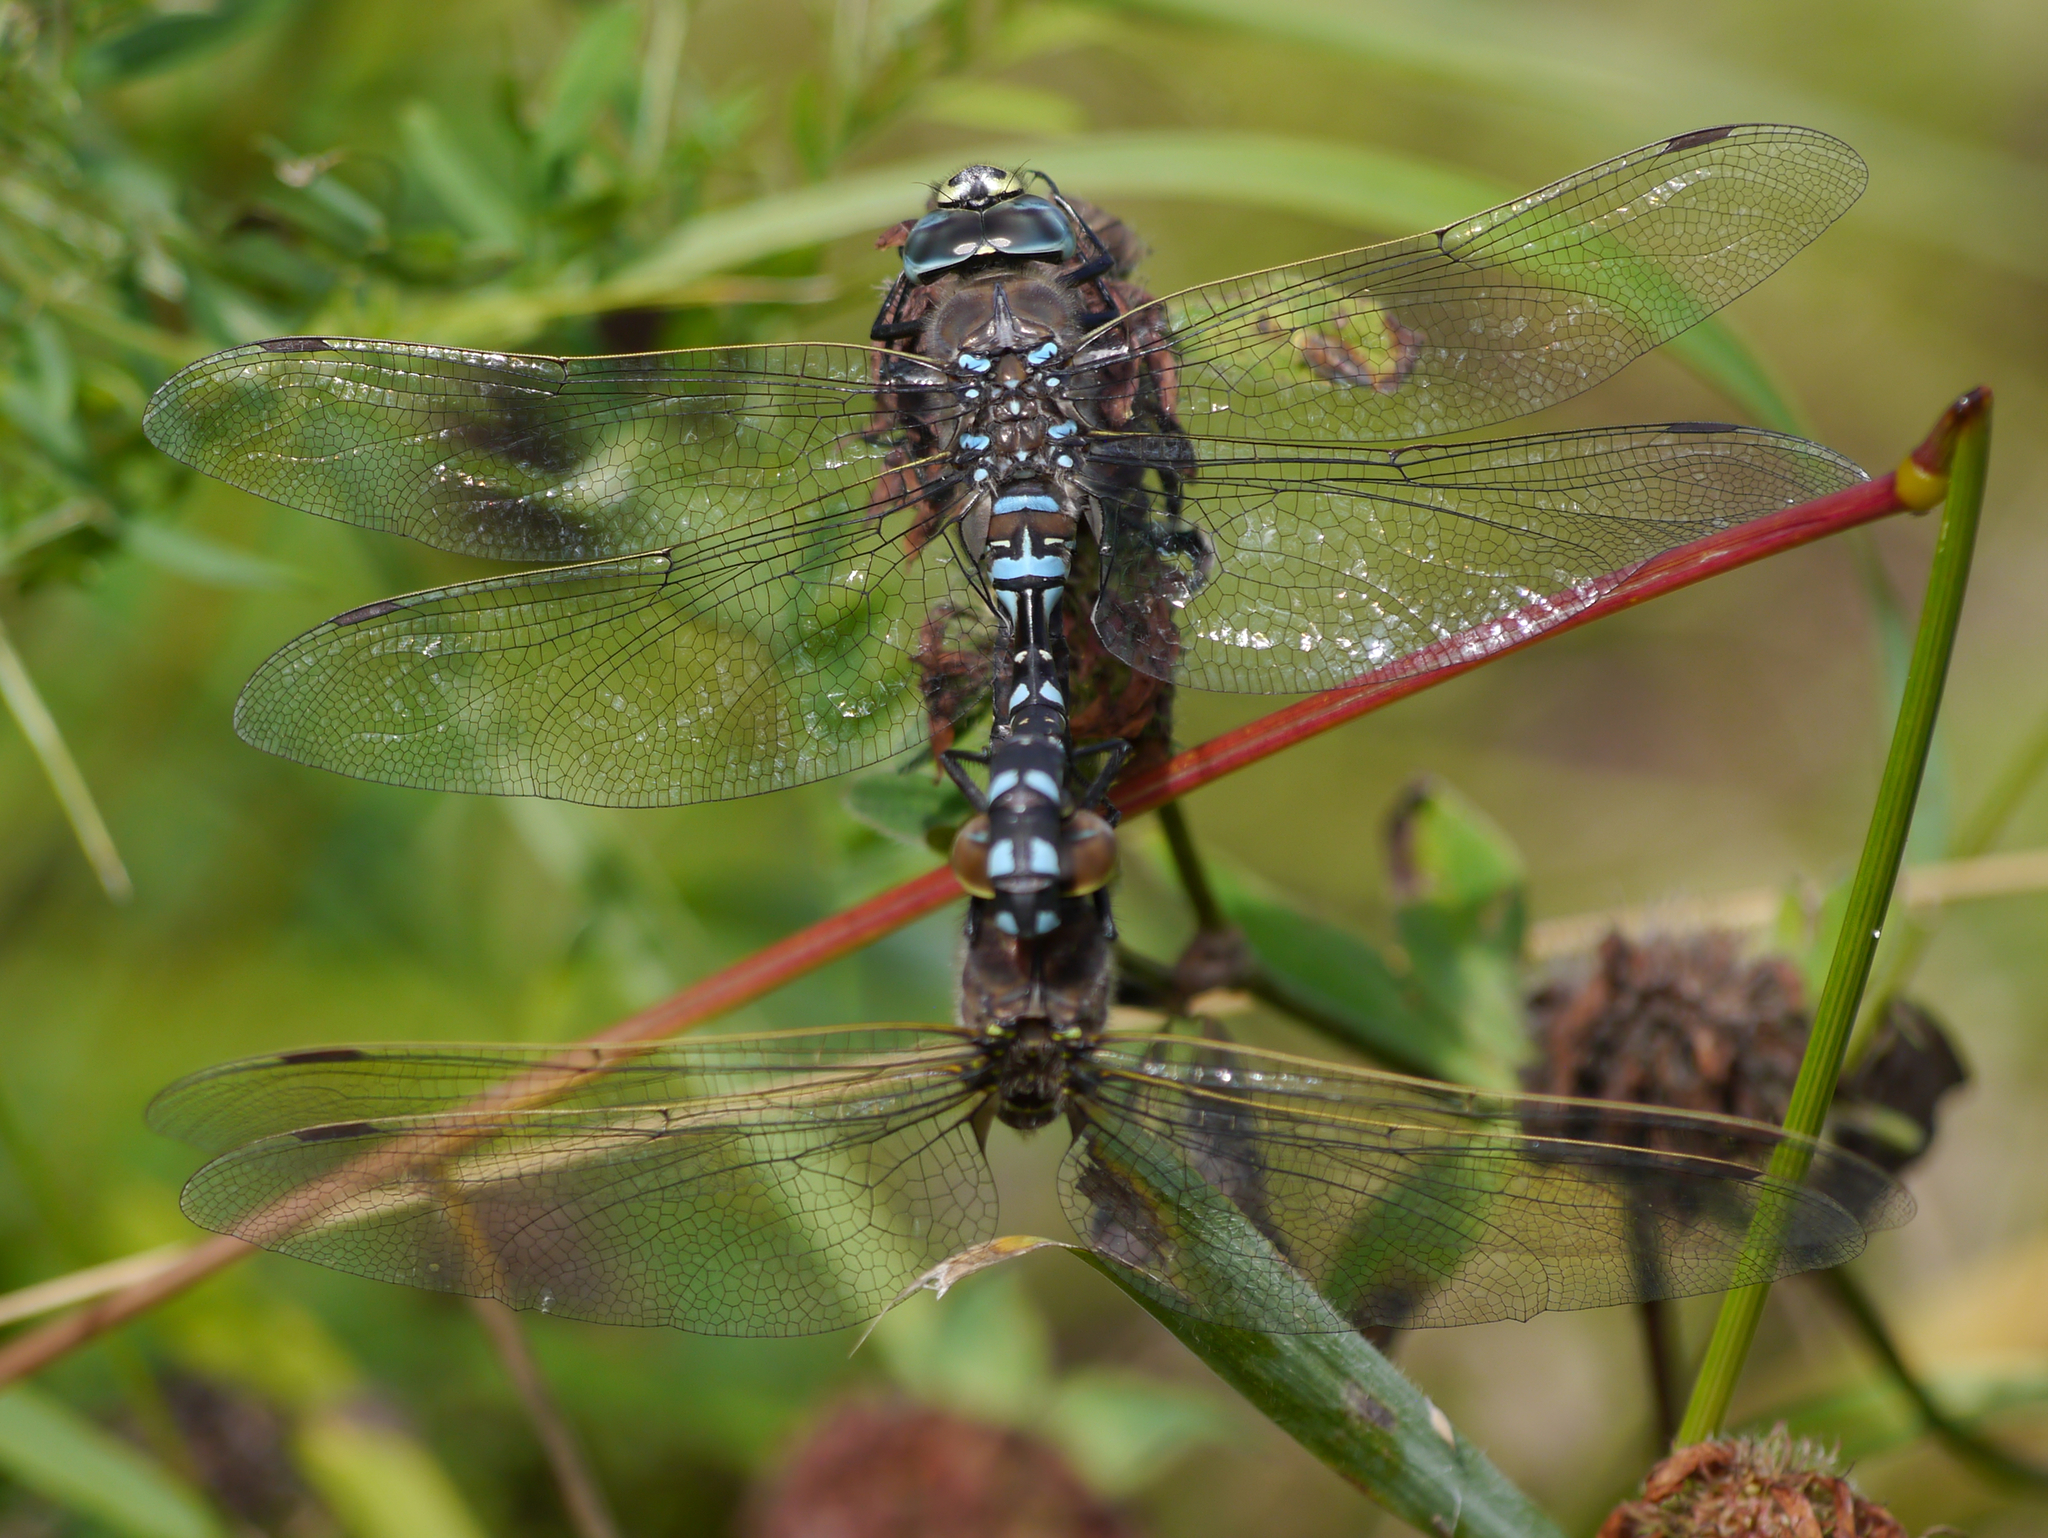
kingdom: Animalia
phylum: Arthropoda
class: Insecta
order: Odonata
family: Aeshnidae
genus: Aeshna
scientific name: Aeshna interrupta
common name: Variable darner
